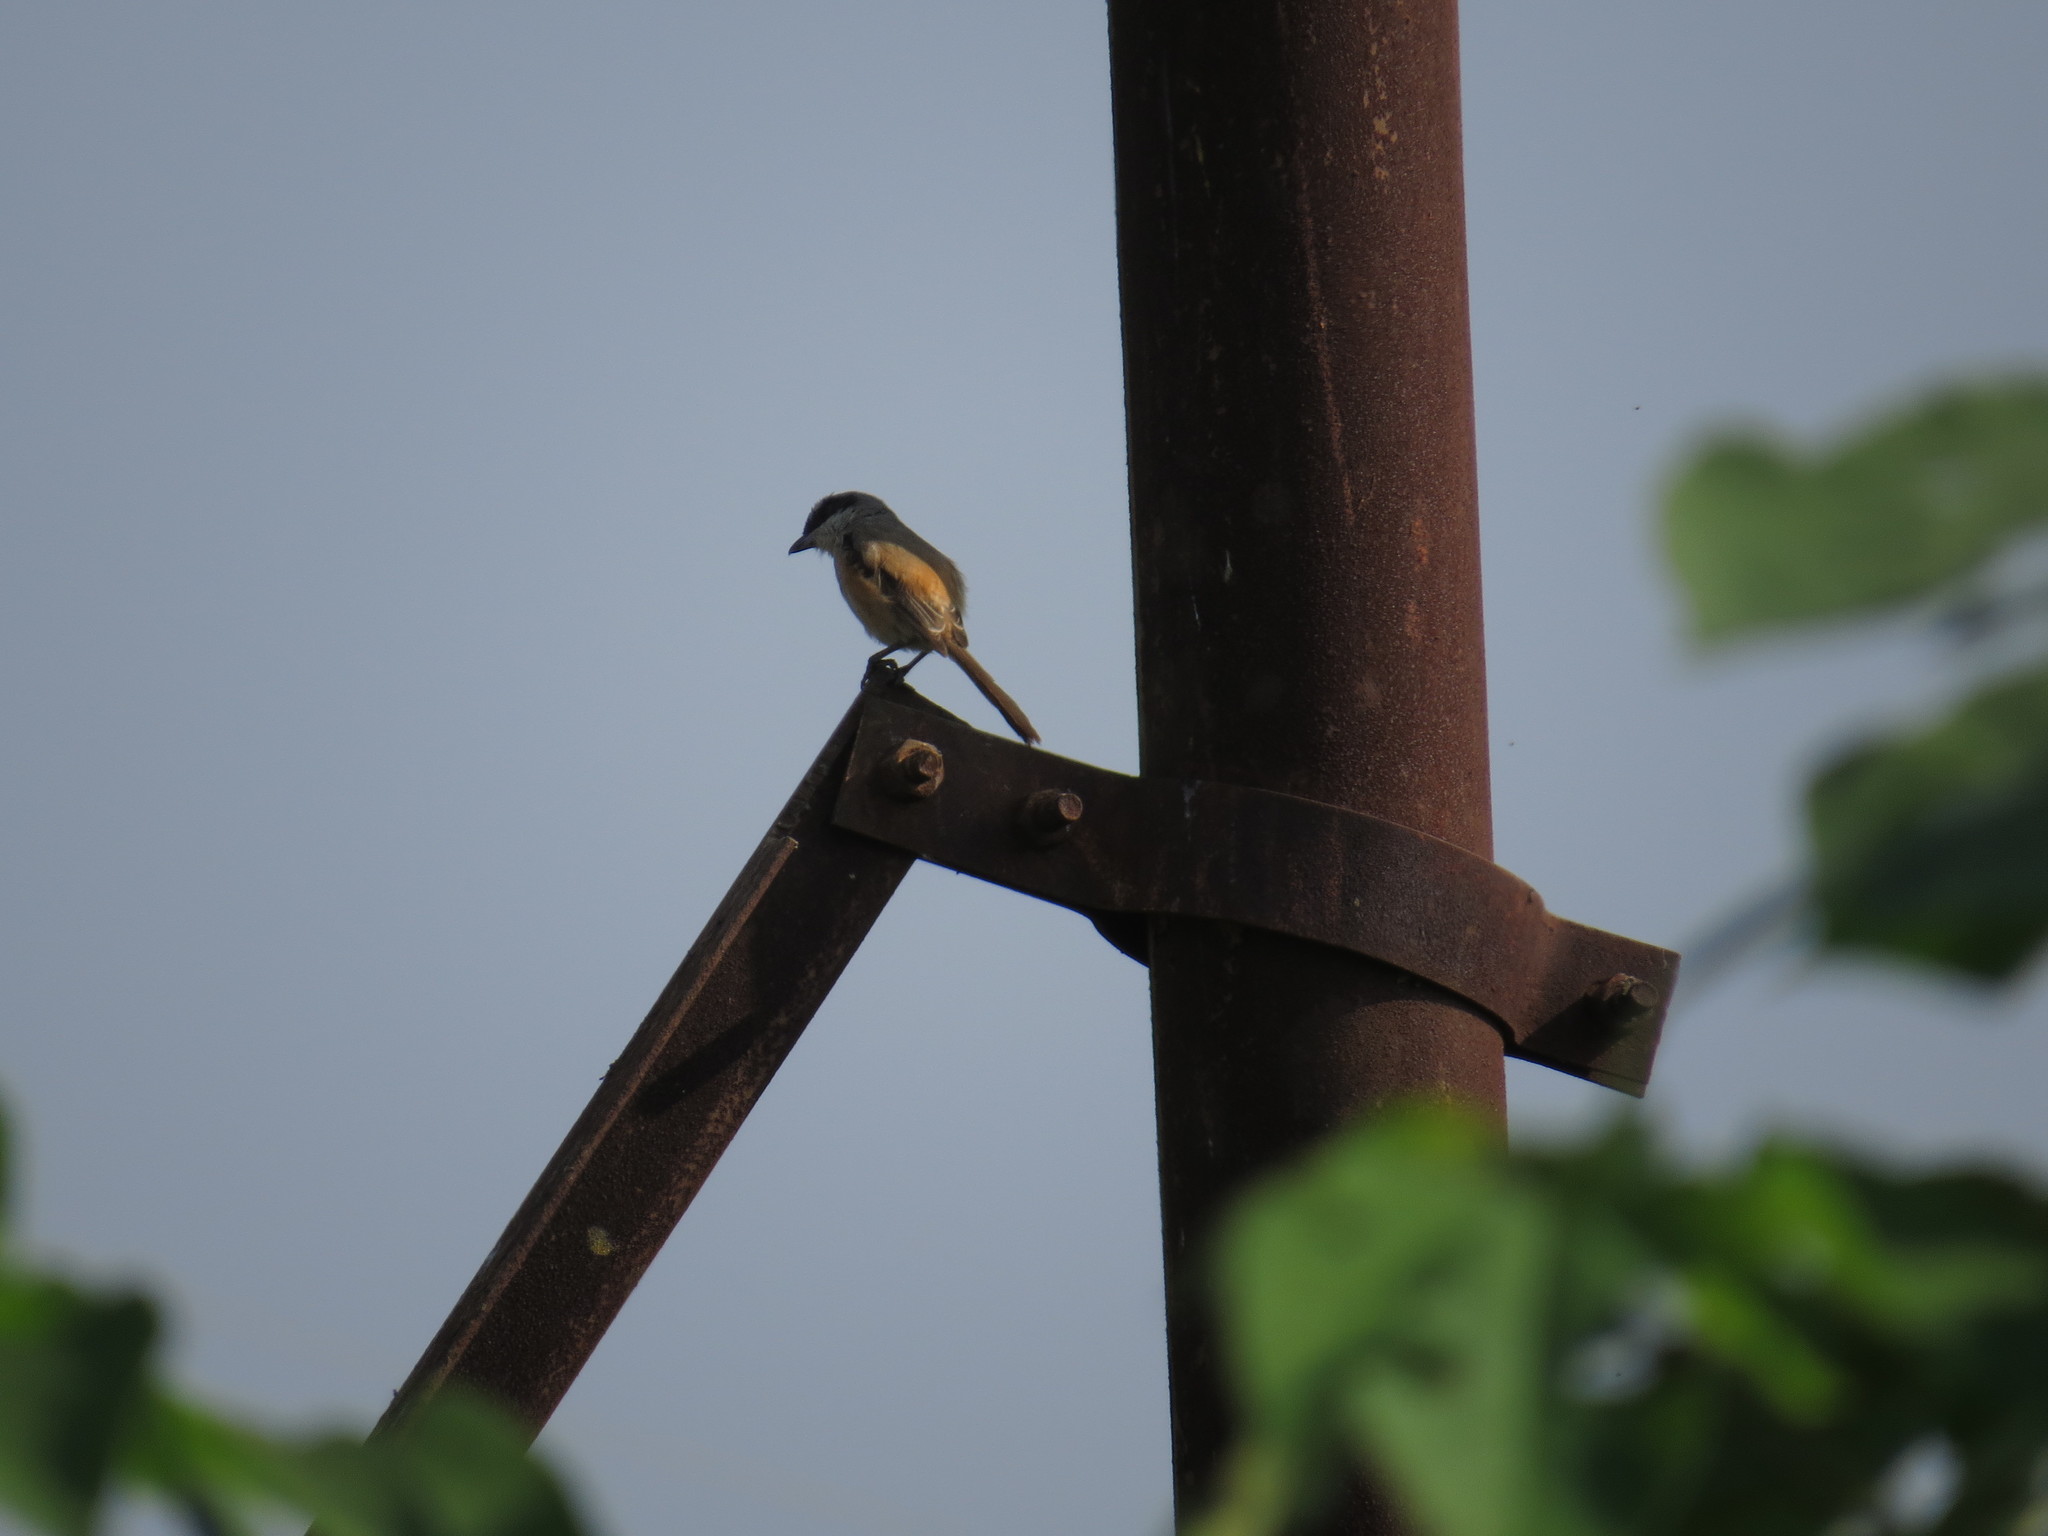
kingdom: Animalia
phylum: Chordata
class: Aves
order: Passeriformes
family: Laniidae
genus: Lanius
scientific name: Lanius schach
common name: Long-tailed shrike
